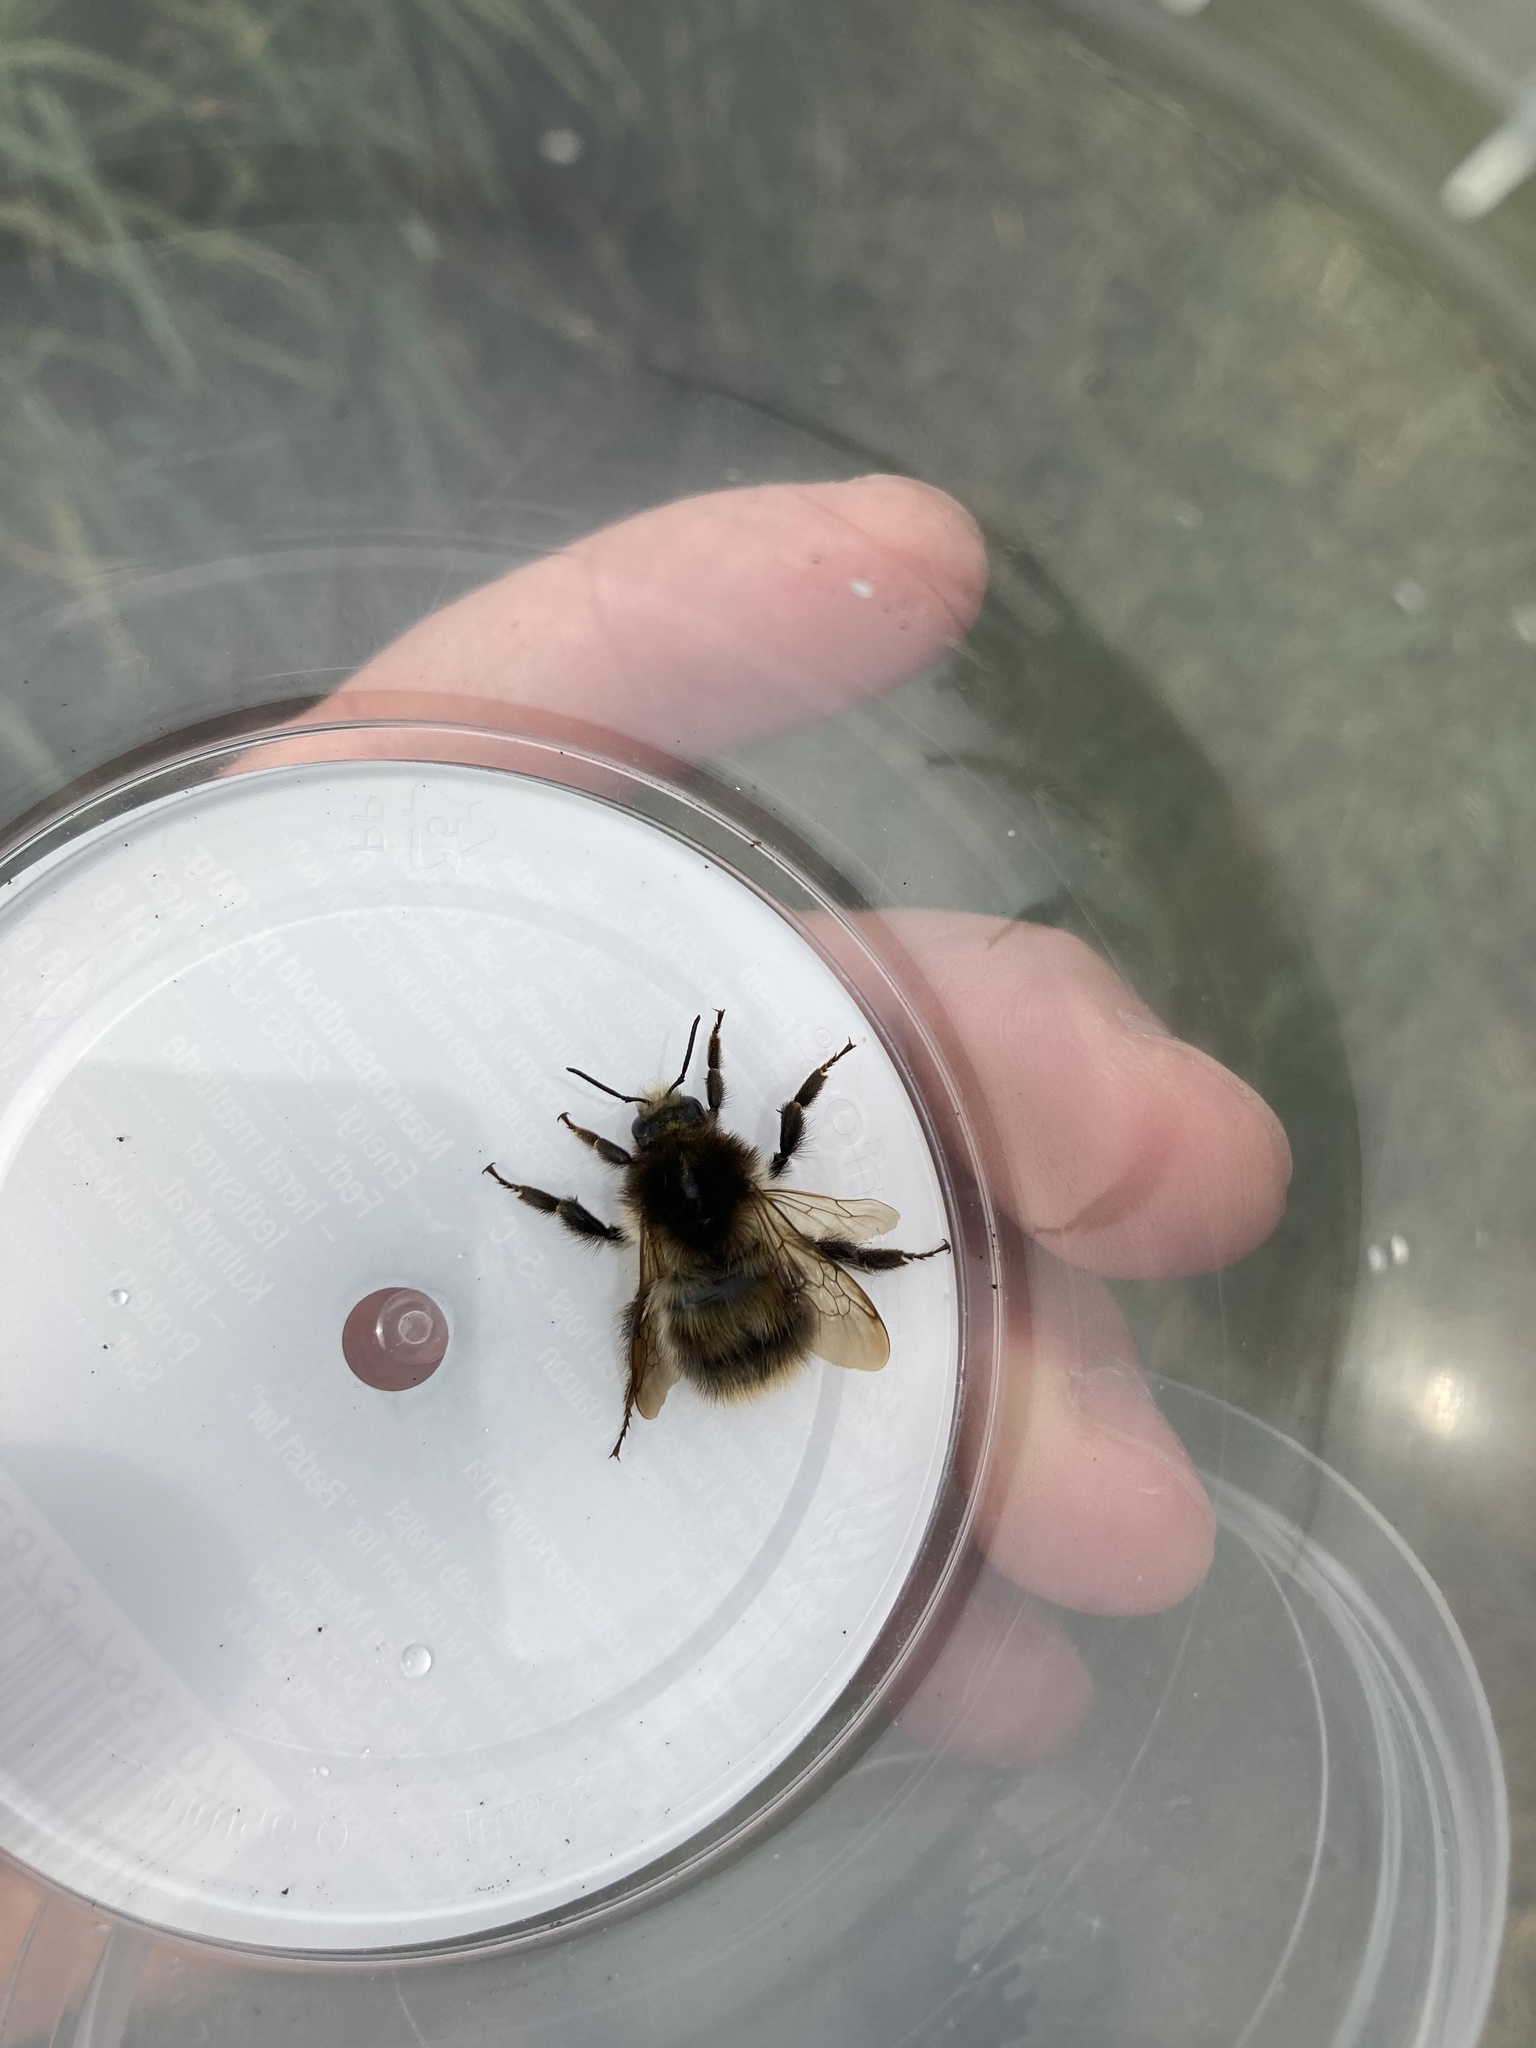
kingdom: Animalia
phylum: Arthropoda
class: Insecta
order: Hymenoptera
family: Apidae
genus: Bombus
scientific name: Bombus pascuorum
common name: Common carder bee
